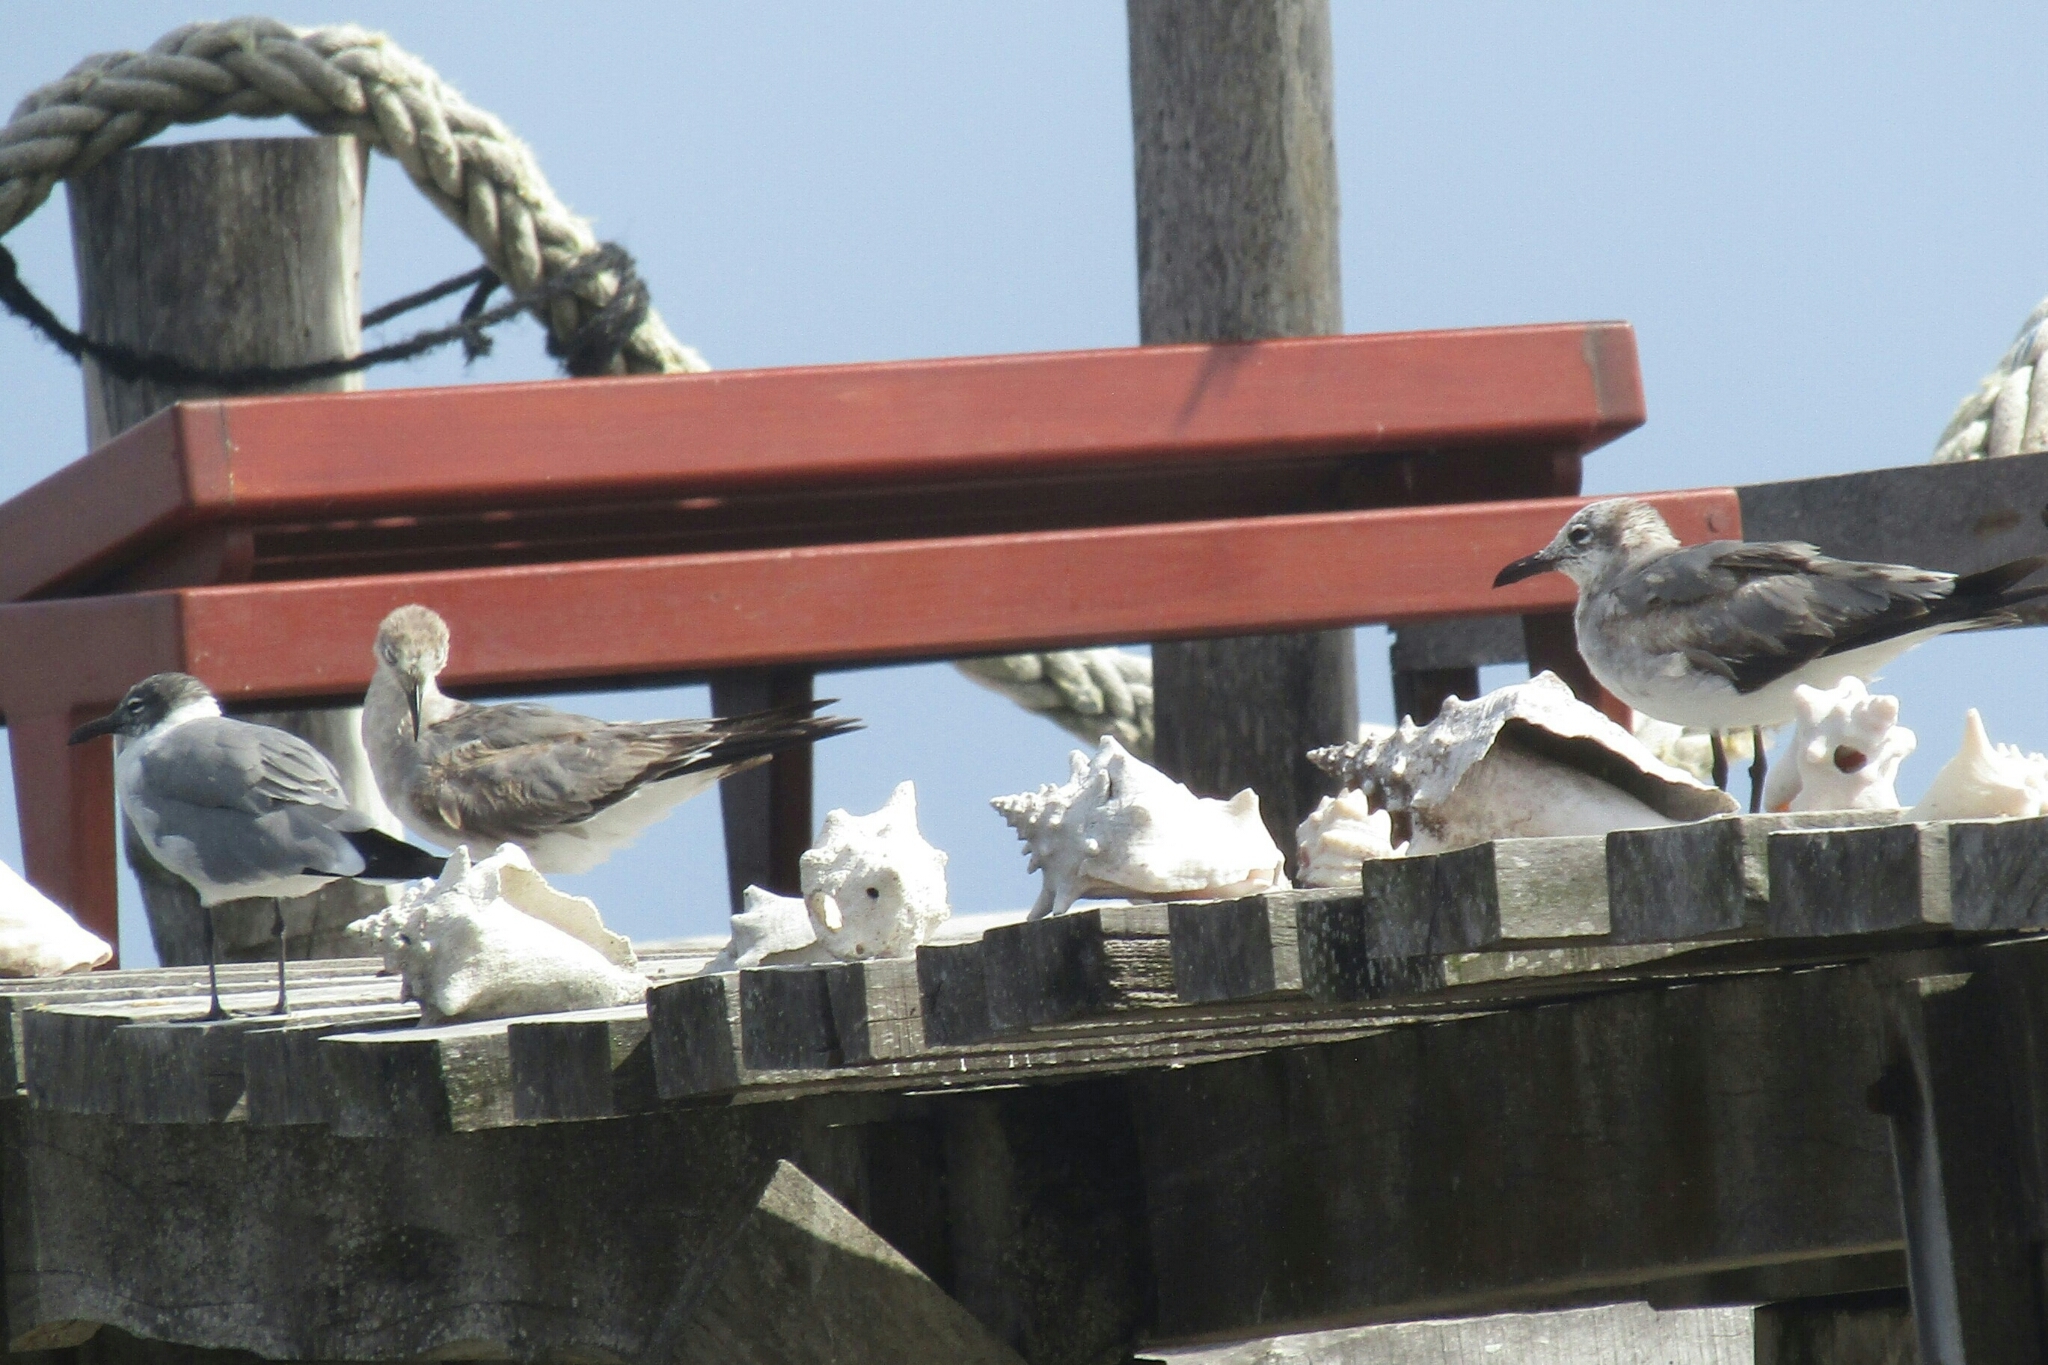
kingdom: Animalia
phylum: Chordata
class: Aves
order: Charadriiformes
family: Laridae
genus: Leucophaeus
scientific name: Leucophaeus atricilla
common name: Laughing gull
